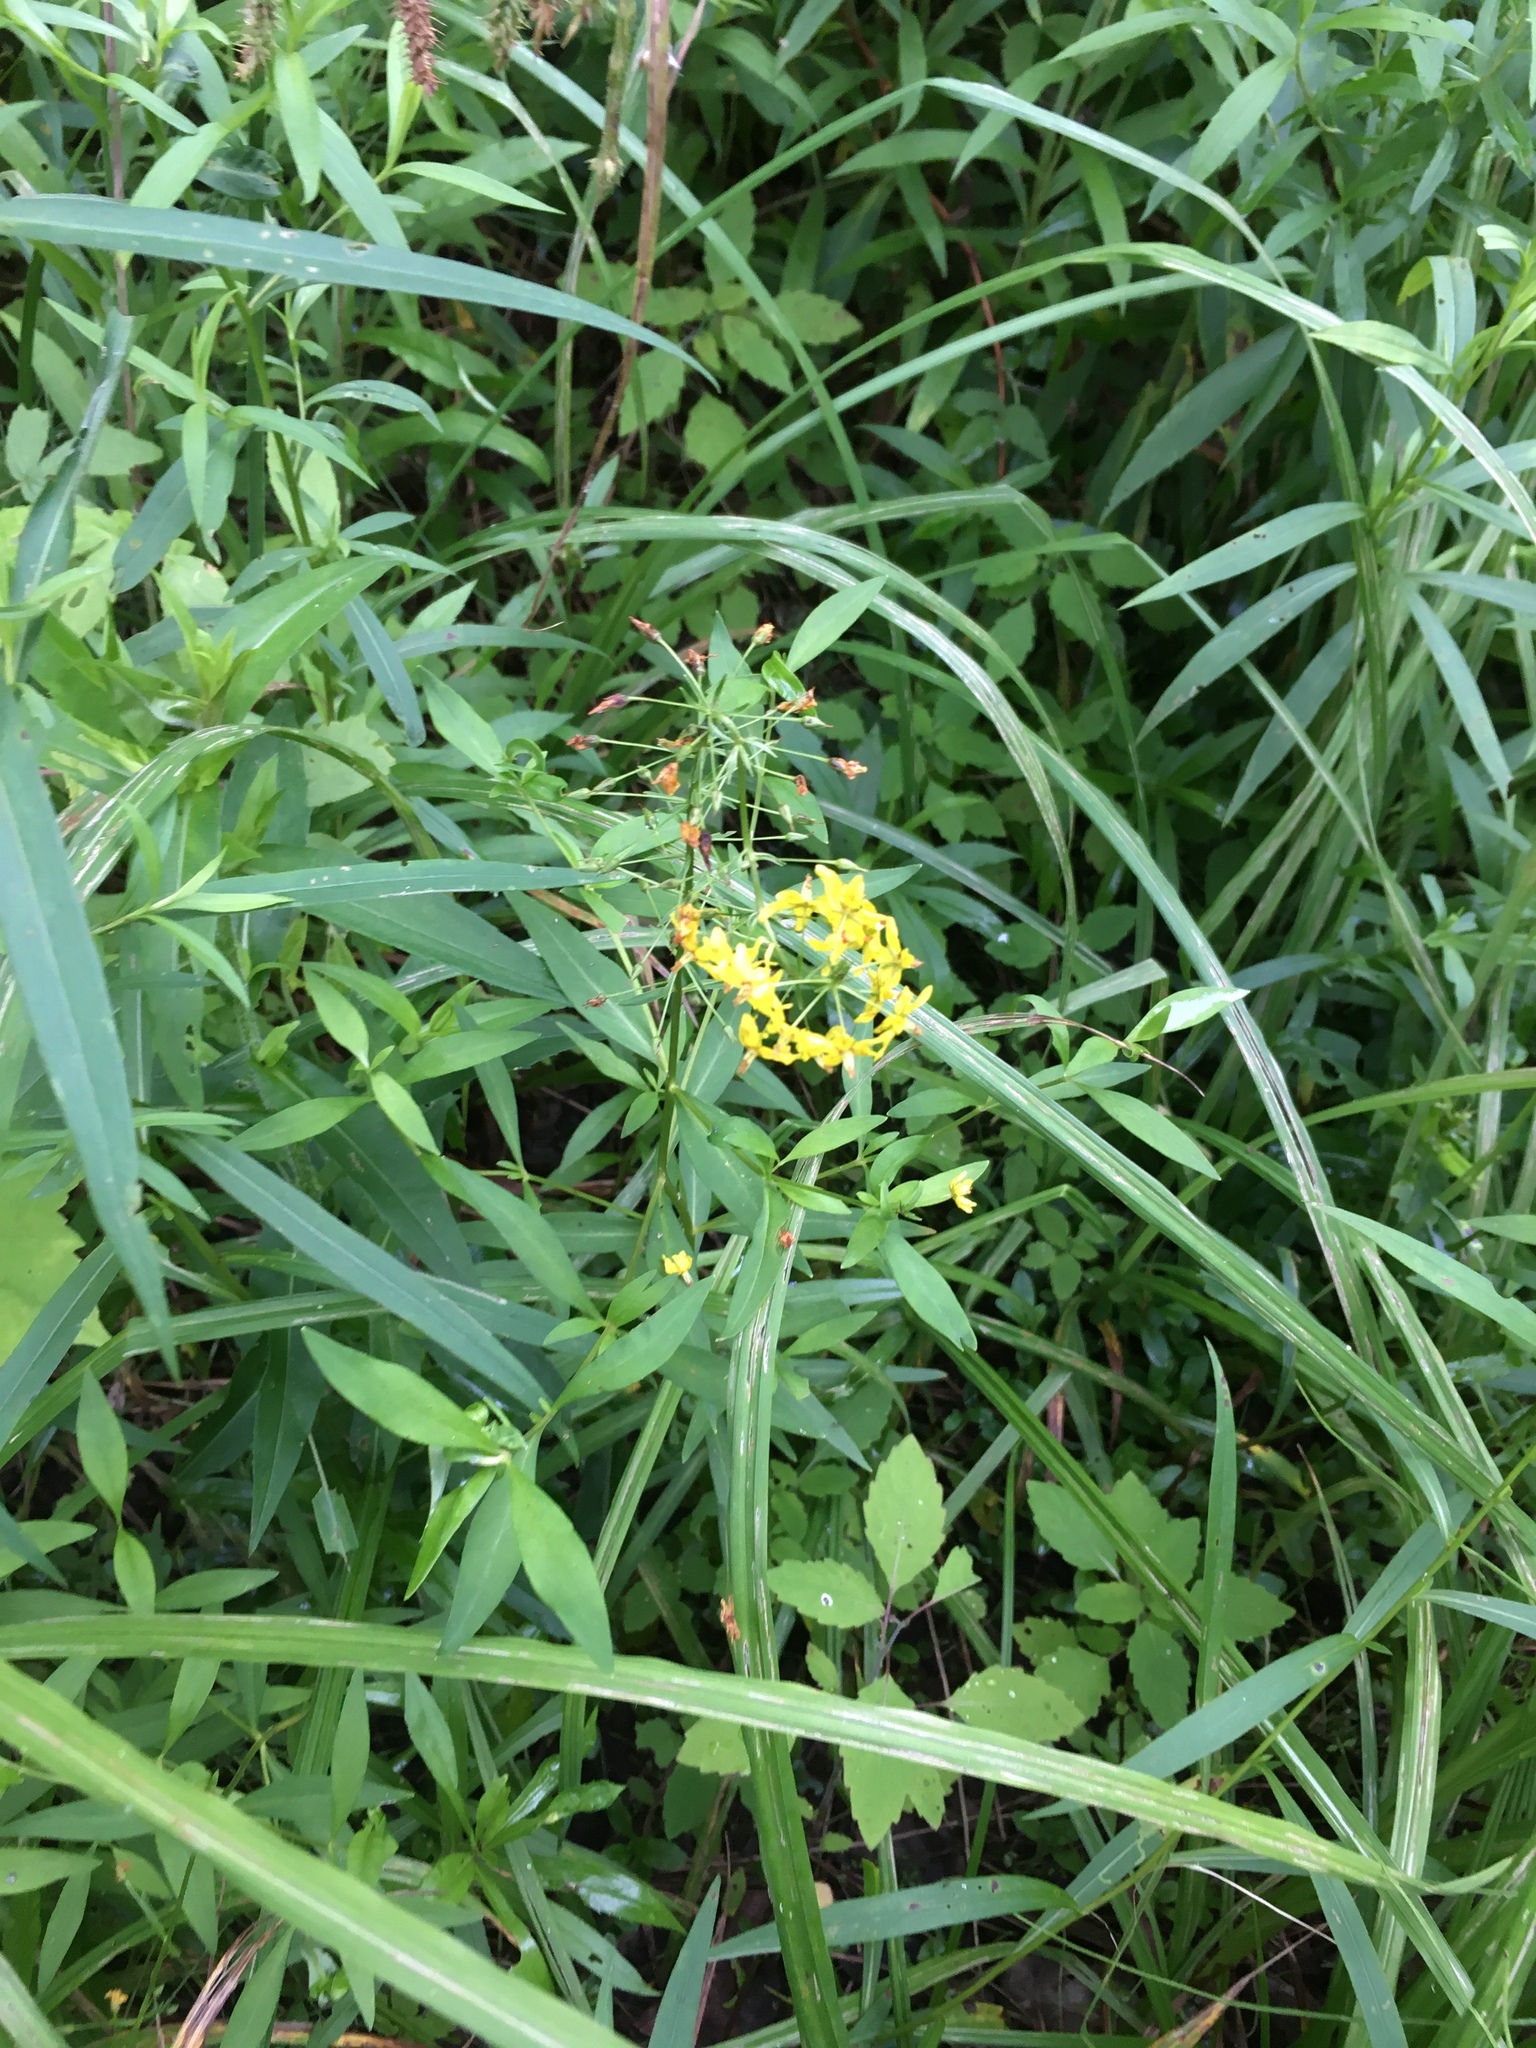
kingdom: Plantae
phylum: Tracheophyta
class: Magnoliopsida
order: Ericales
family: Primulaceae
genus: Lysimachia
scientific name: Lysimachia terrestris
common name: Lake loosestrife
